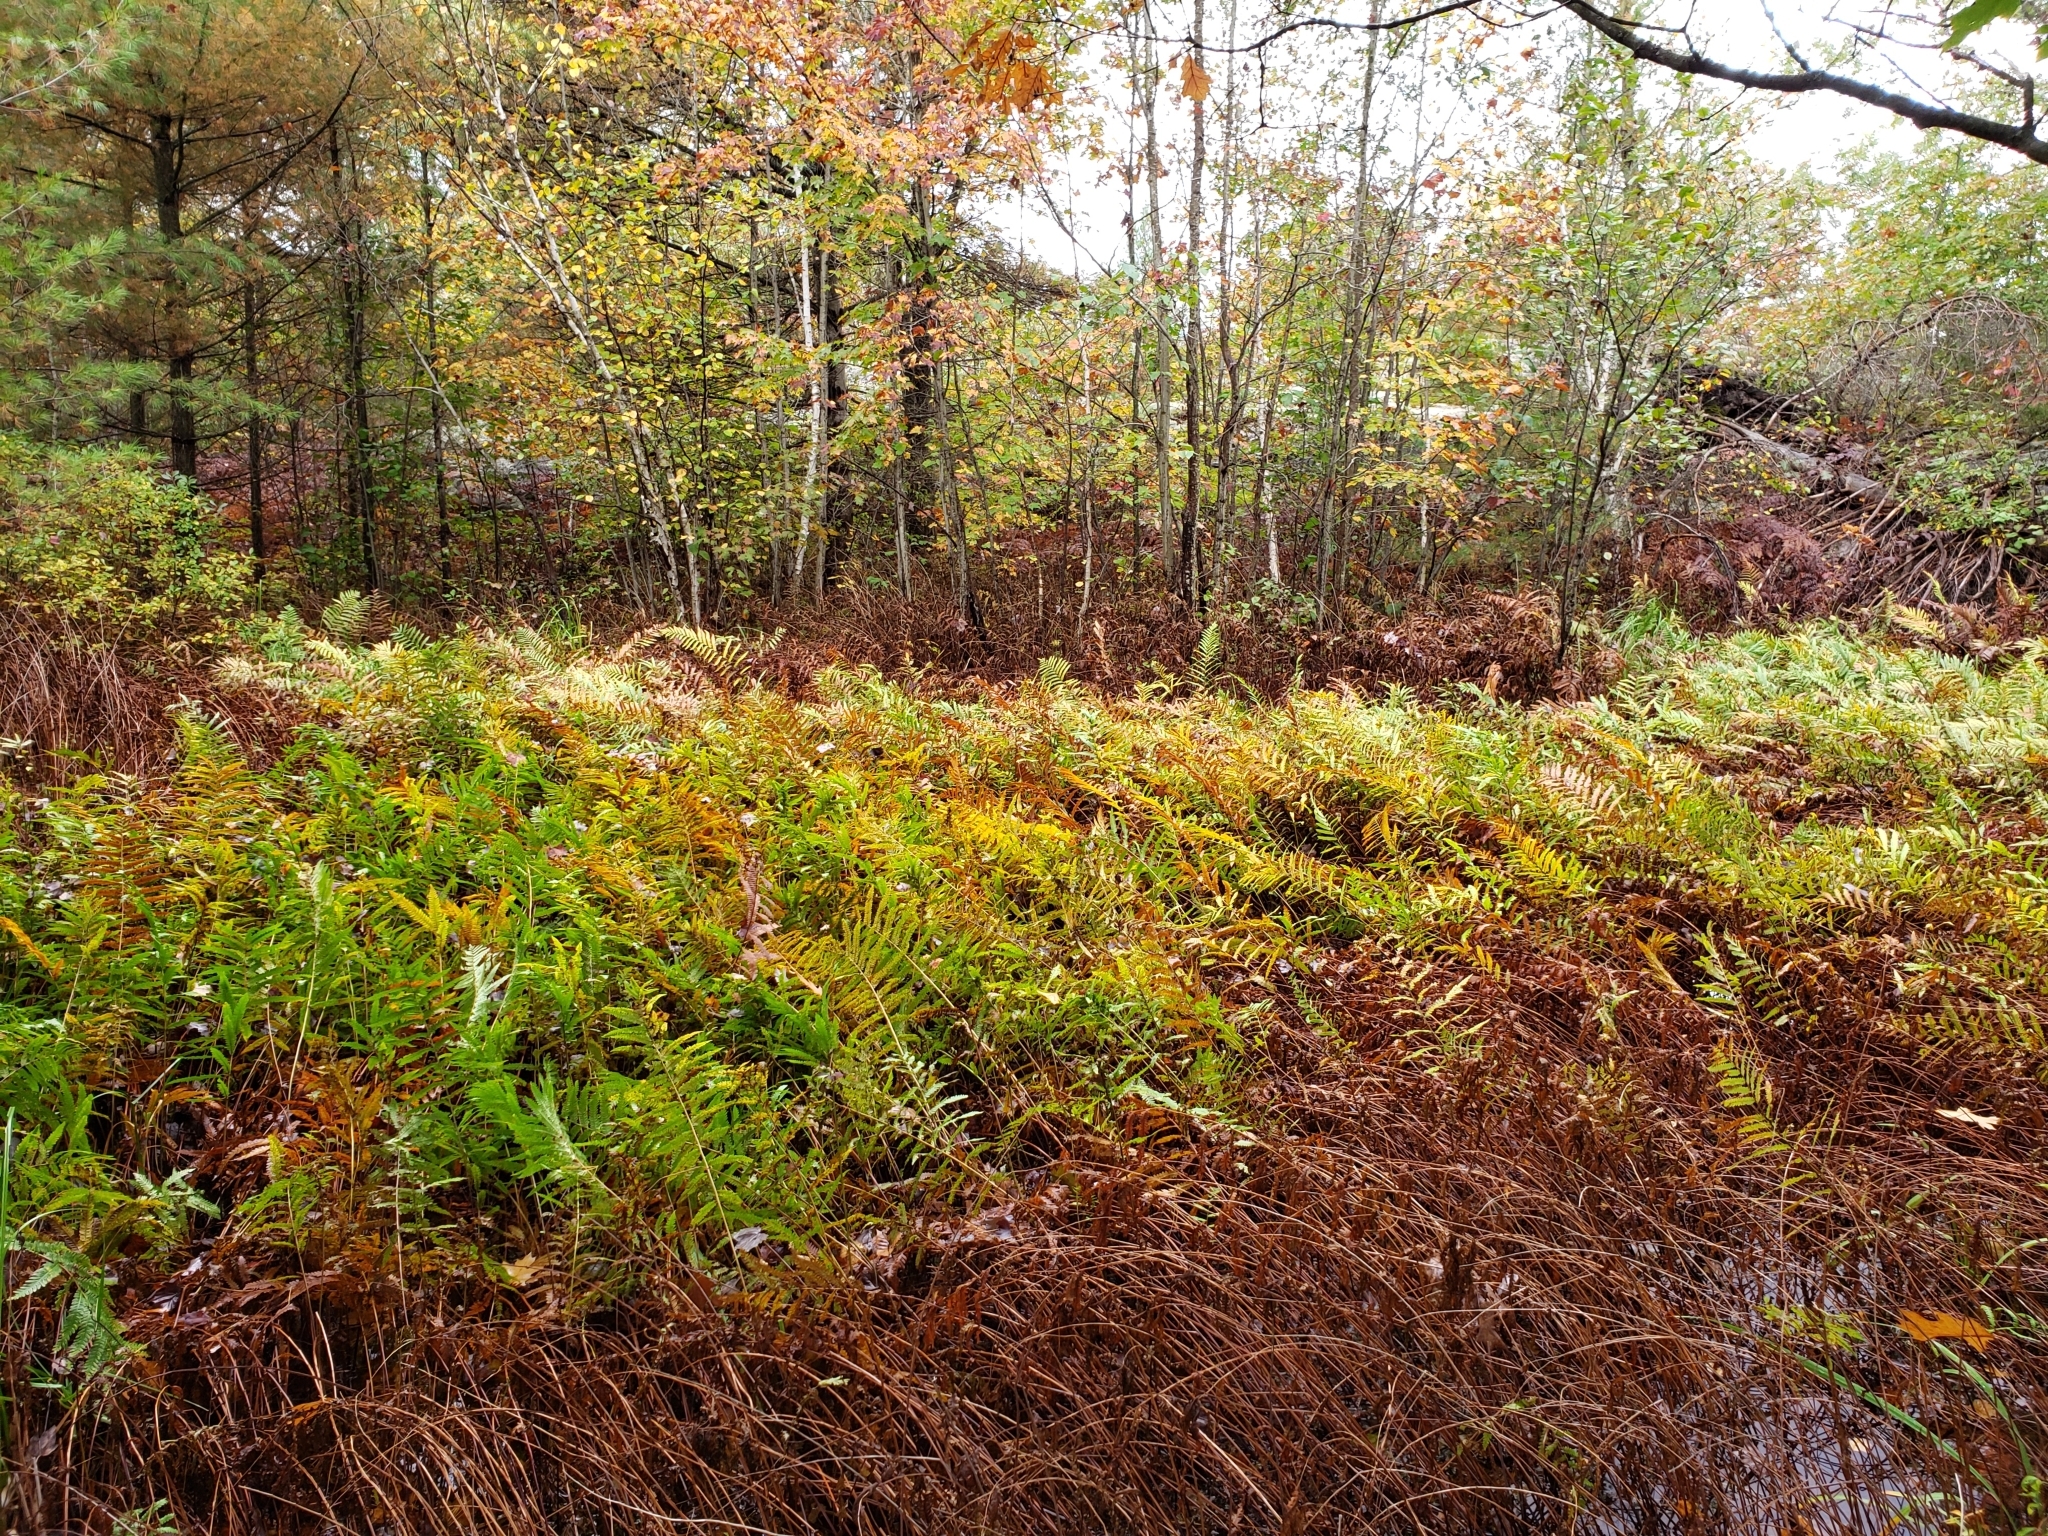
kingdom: Plantae
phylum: Tracheophyta
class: Polypodiopsida
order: Polypodiales
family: Blechnaceae
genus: Anchistea
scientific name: Anchistea virginica
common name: Virginia chain fern
